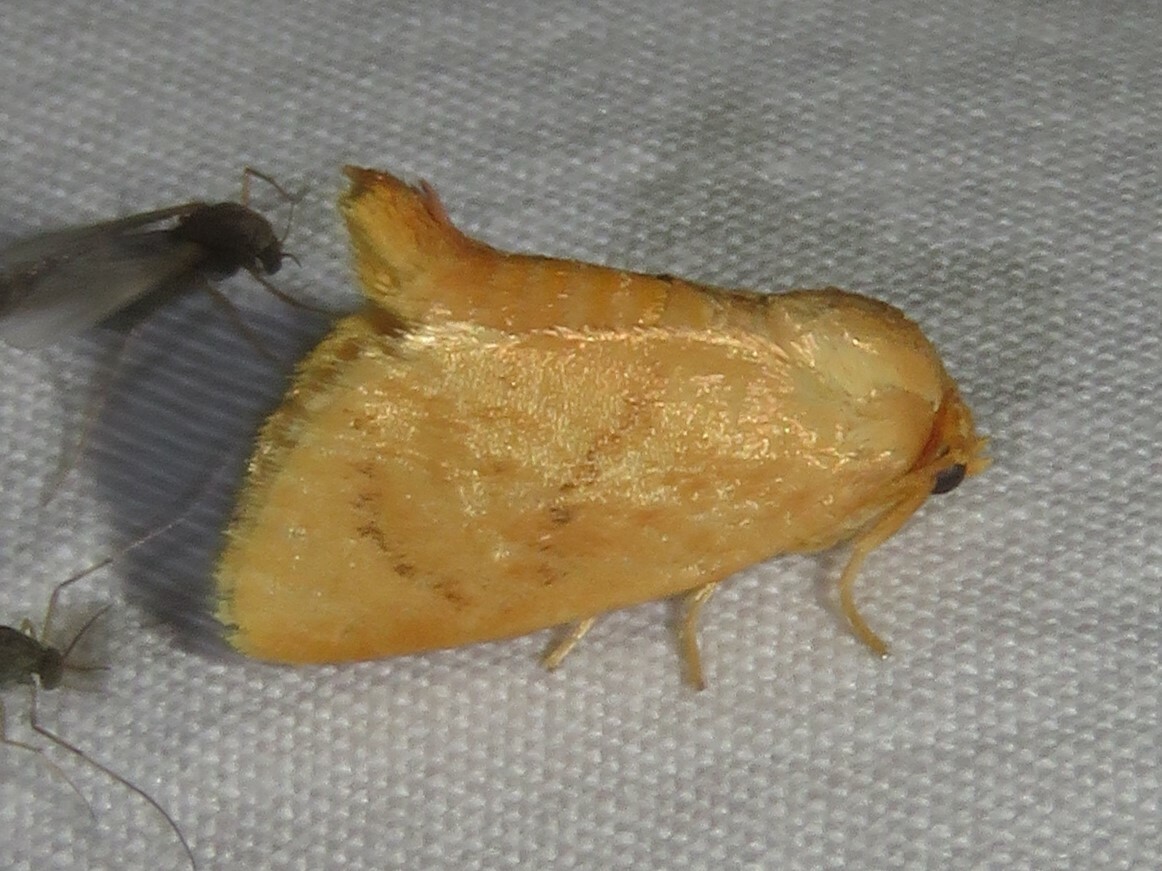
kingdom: Animalia
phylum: Arthropoda
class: Insecta
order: Lepidoptera
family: Limacodidae
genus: Tortricidia
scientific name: Tortricidia pallida
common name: Red-crossed button slug moth
